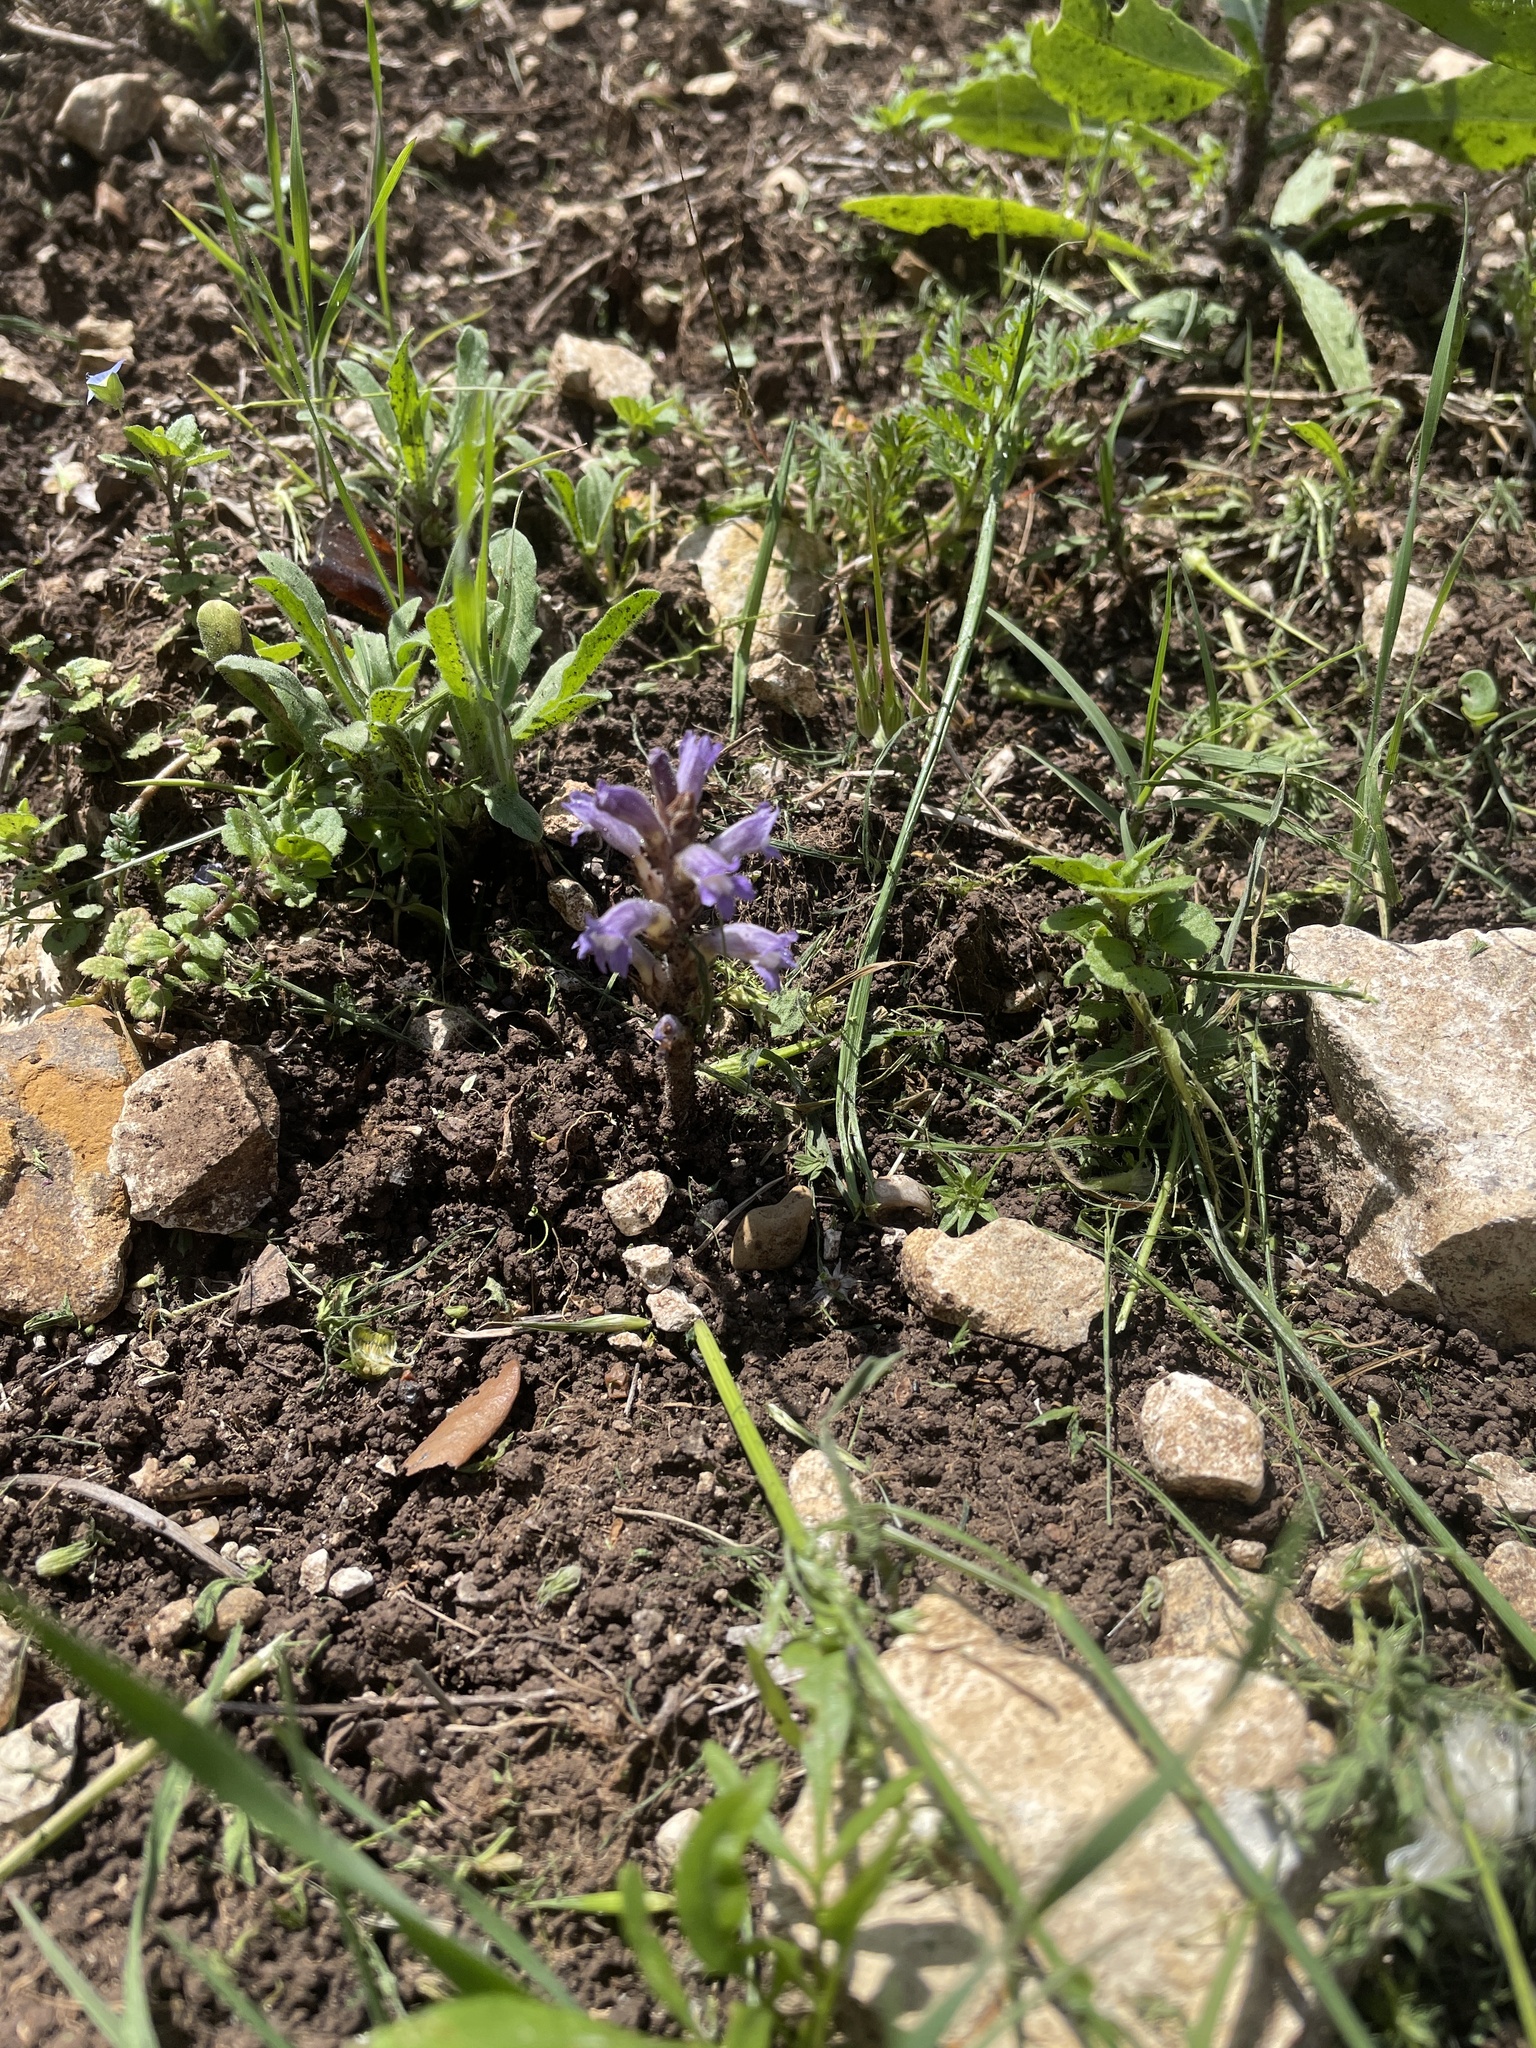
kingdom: Plantae
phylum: Tracheophyta
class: Magnoliopsida
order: Lamiales
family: Orobanchaceae
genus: Phelipanche
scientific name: Phelipanche mutelii
